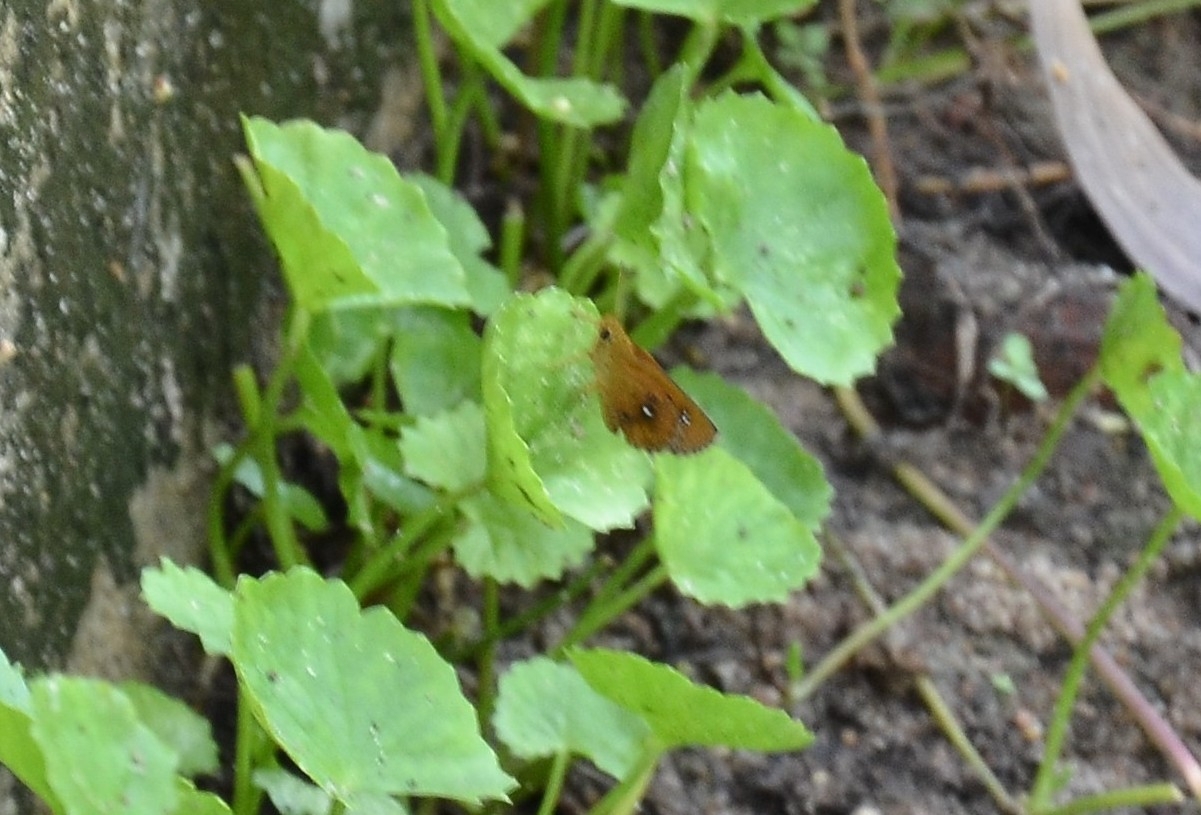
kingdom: Animalia
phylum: Arthropoda
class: Insecta
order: Lepidoptera
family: Hesperiidae
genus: Iambrix
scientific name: Iambrix salsala
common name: Chestnut bob
